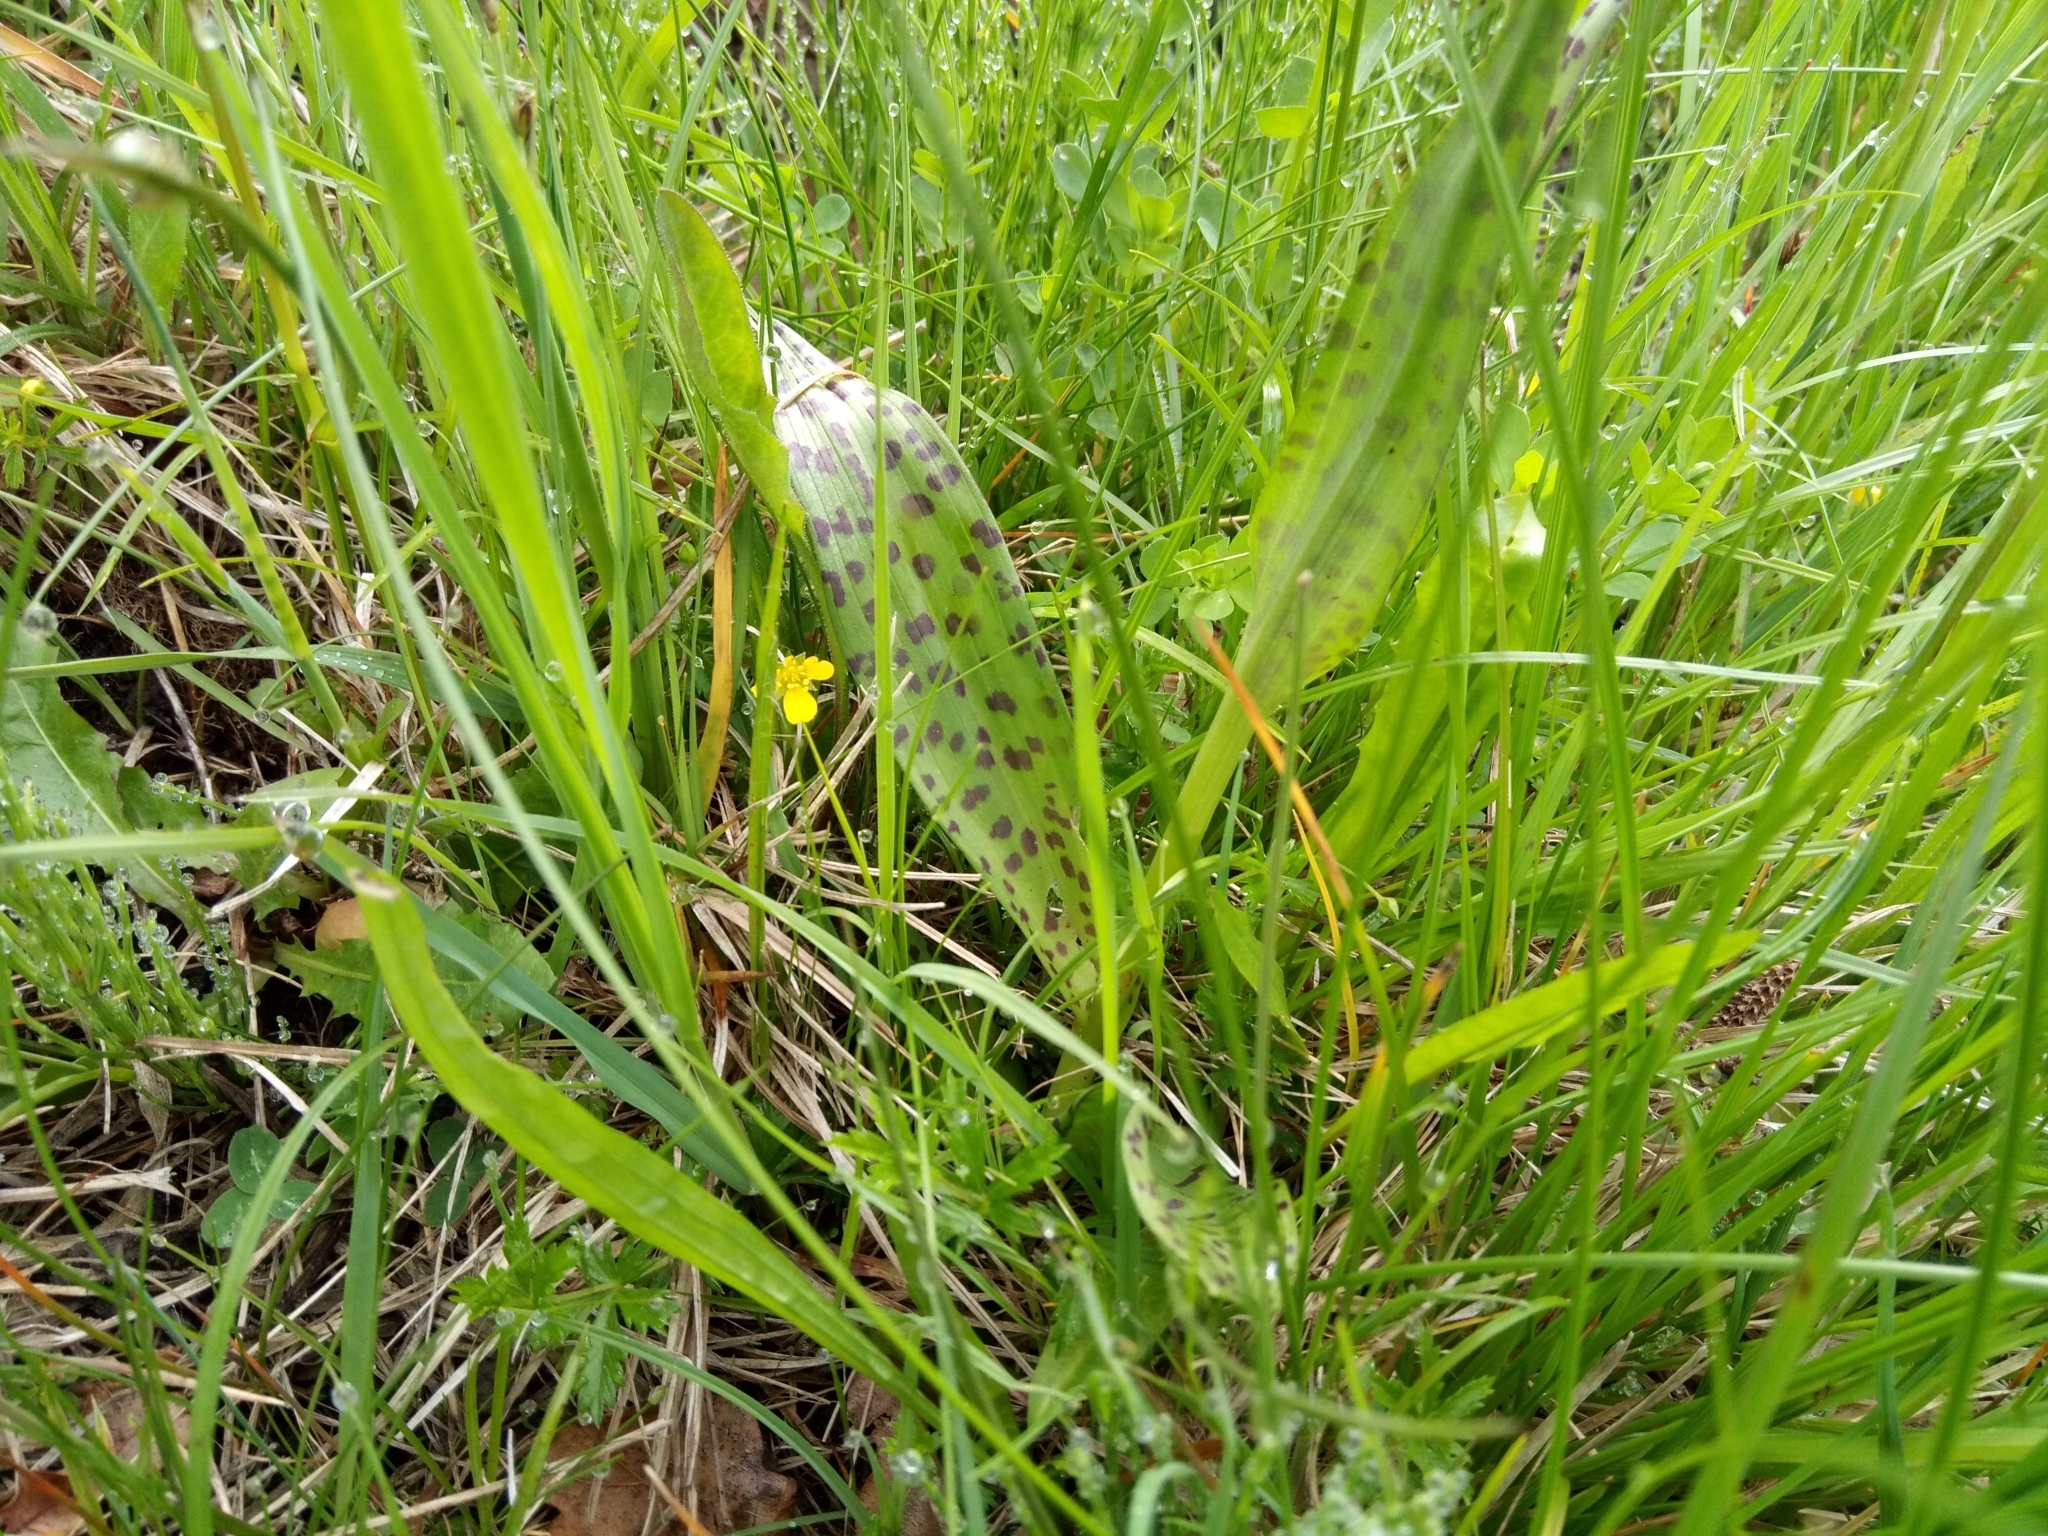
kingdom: Plantae
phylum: Tracheophyta
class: Liliopsida
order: Asparagales
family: Orchidaceae
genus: Dactylorhiza
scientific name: Dactylorhiza majalis
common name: Marsh orchid
